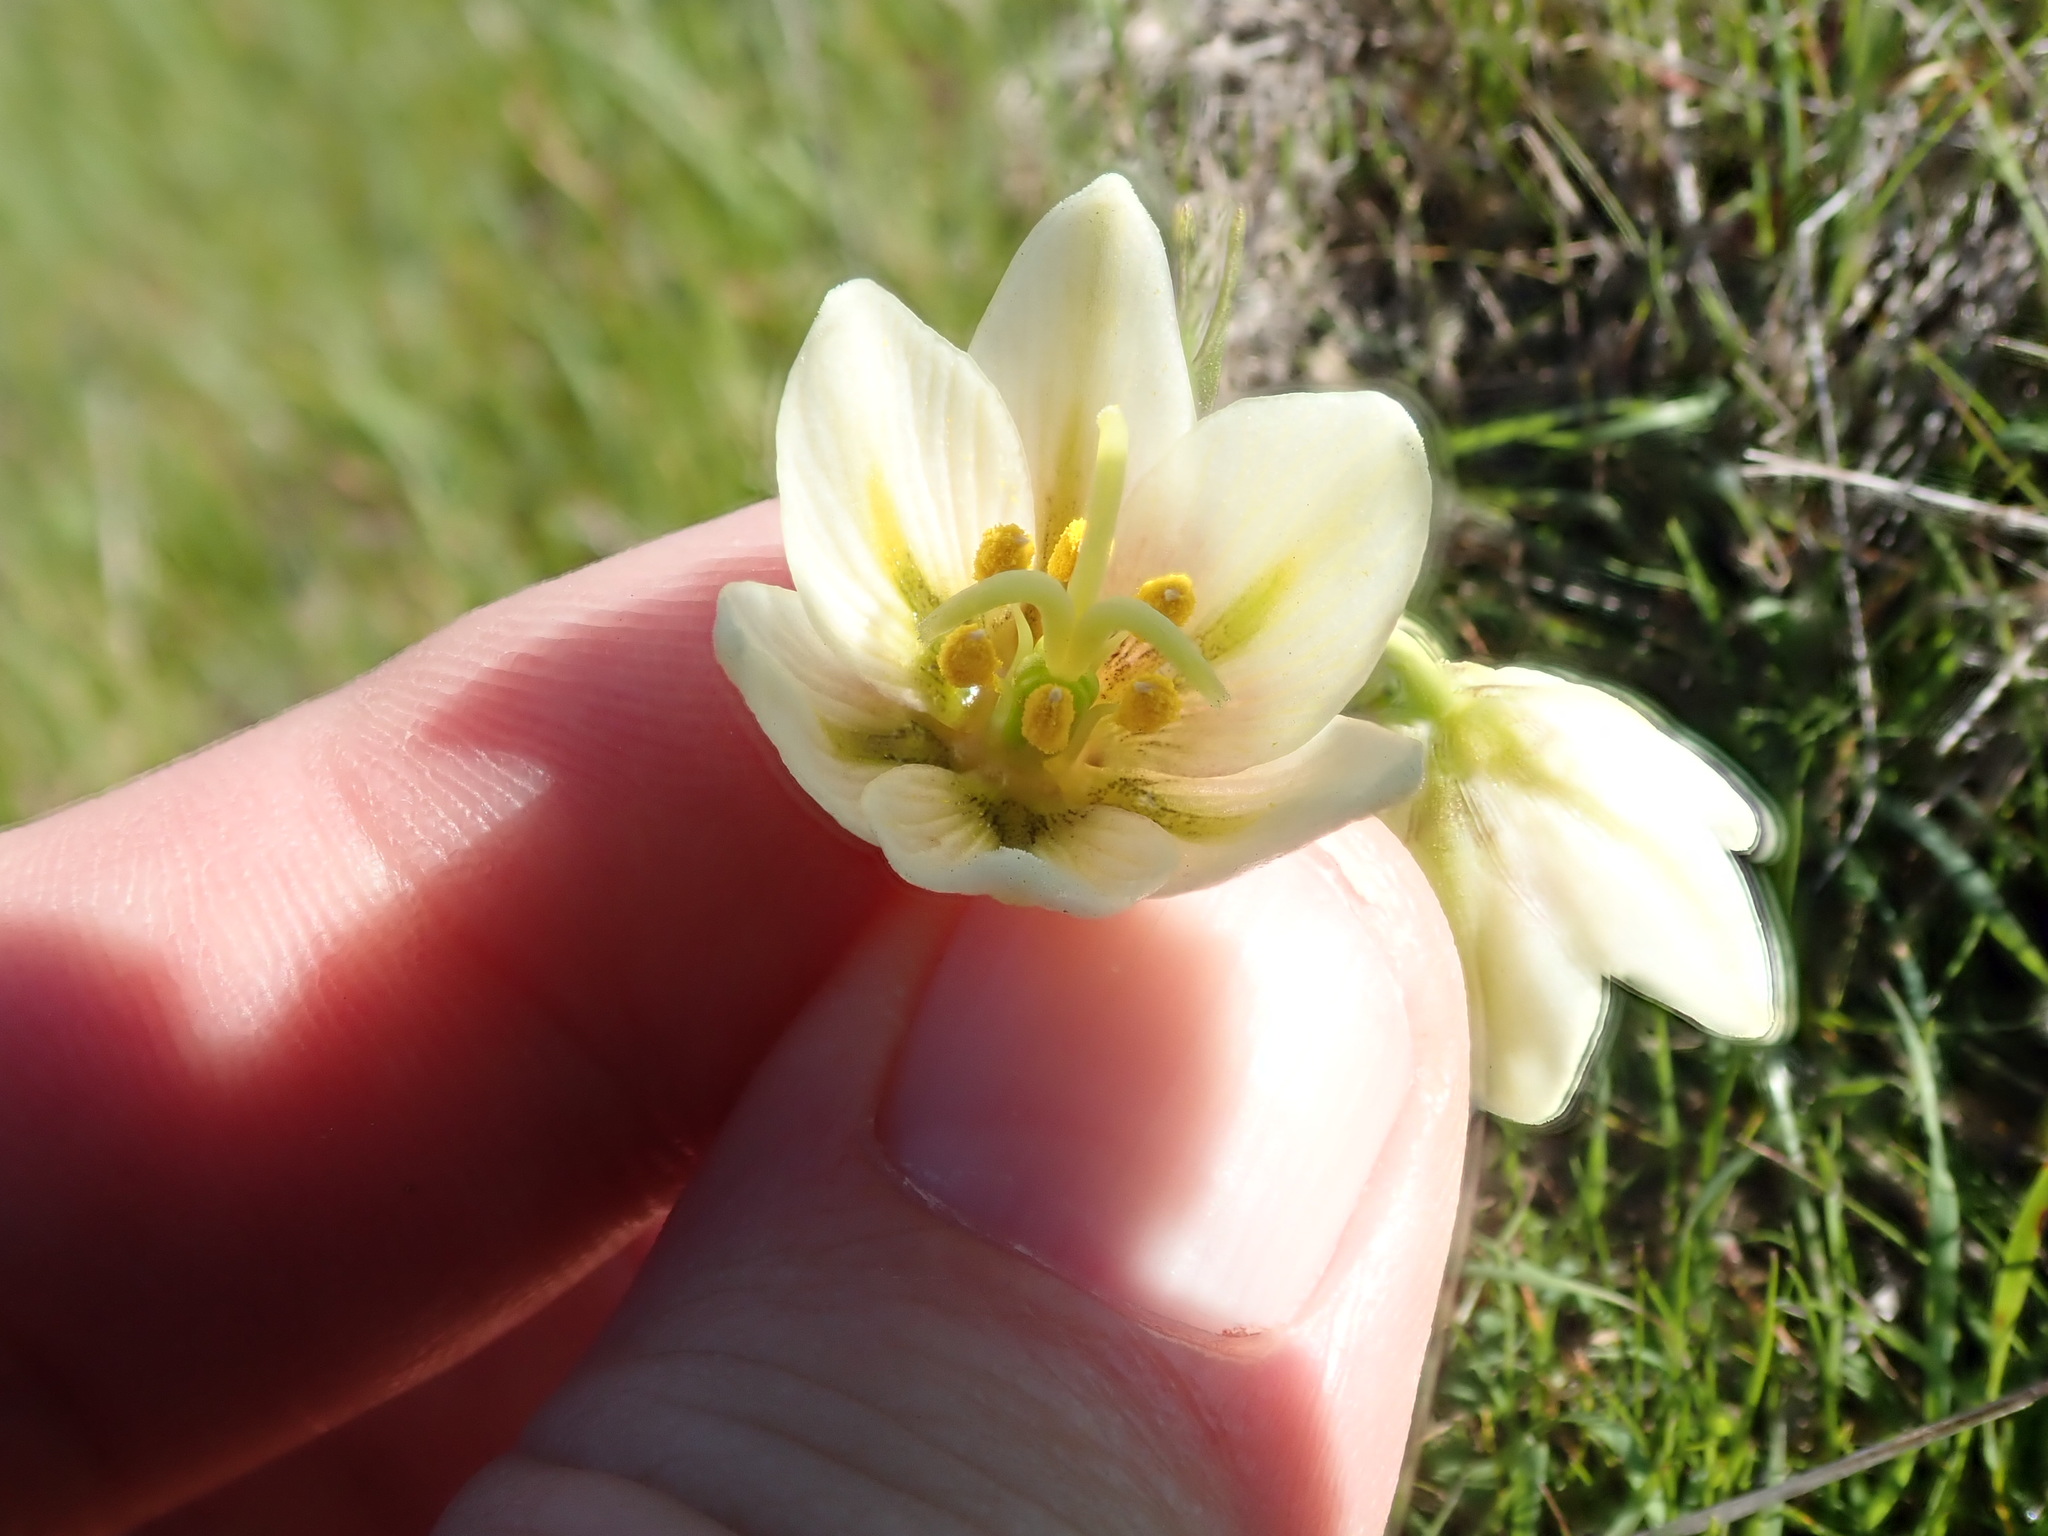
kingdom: Plantae
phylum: Tracheophyta
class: Liliopsida
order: Liliales
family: Liliaceae
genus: Fritillaria
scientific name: Fritillaria liliacea
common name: Fragrant fritillary
